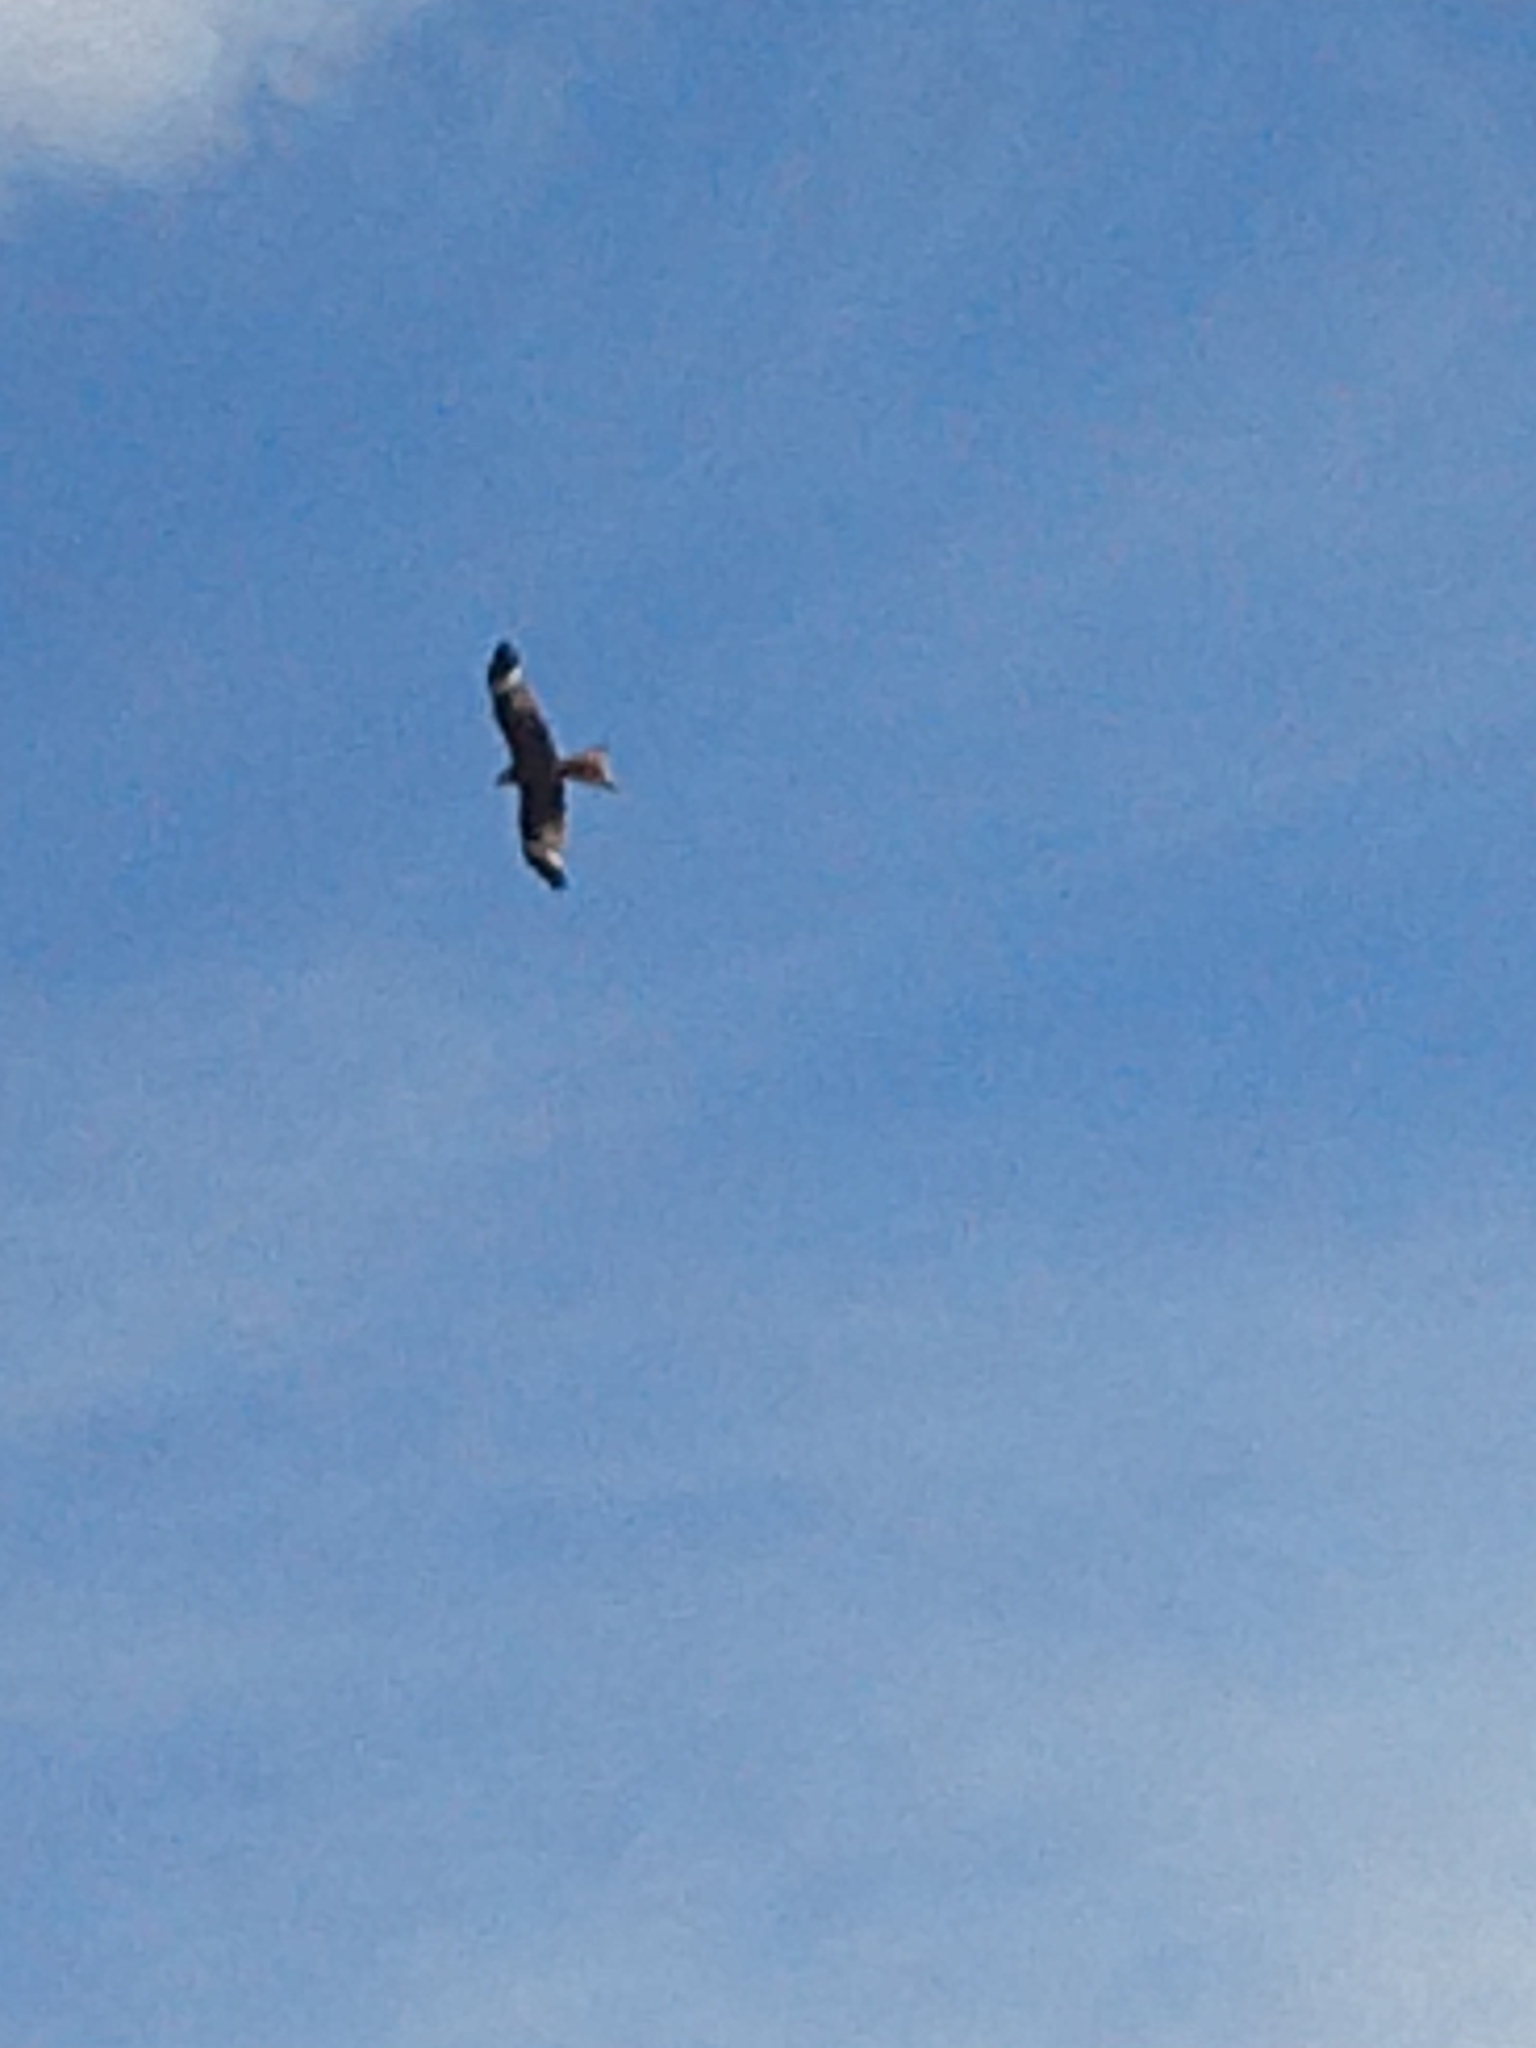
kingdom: Animalia
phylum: Chordata
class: Aves
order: Accipitriformes
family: Accipitridae
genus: Milvus
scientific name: Milvus milvus
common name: Red kite
